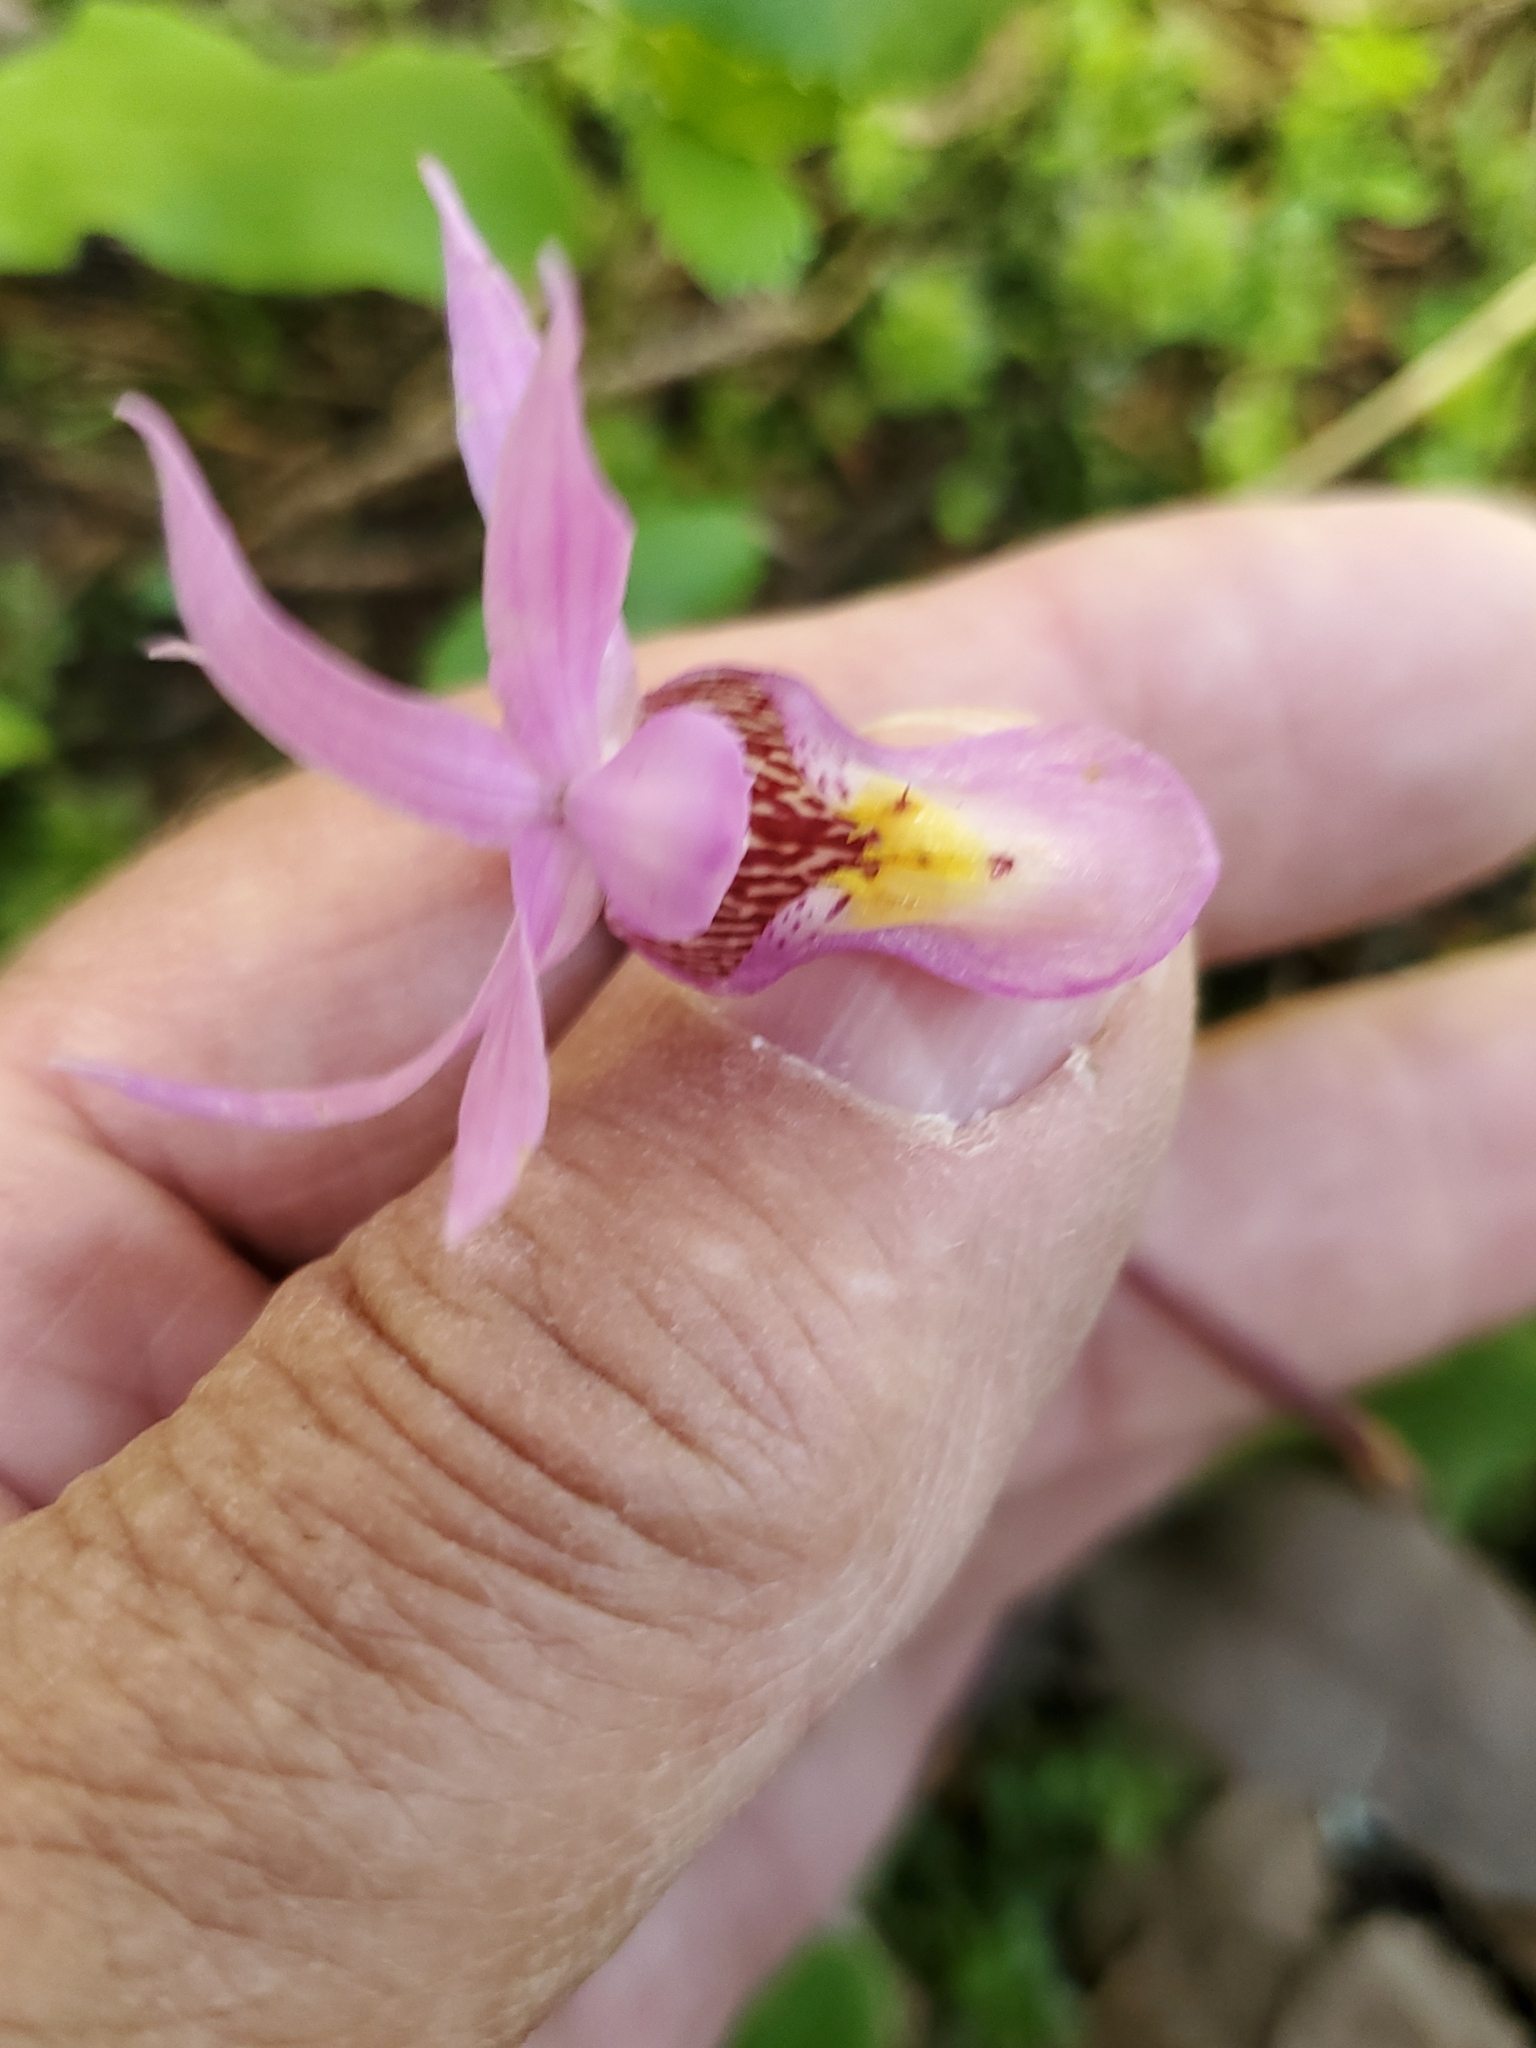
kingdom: Plantae
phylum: Tracheophyta
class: Liliopsida
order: Asparagales
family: Orchidaceae
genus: Calypso
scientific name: Calypso bulbosa
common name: Calypso
